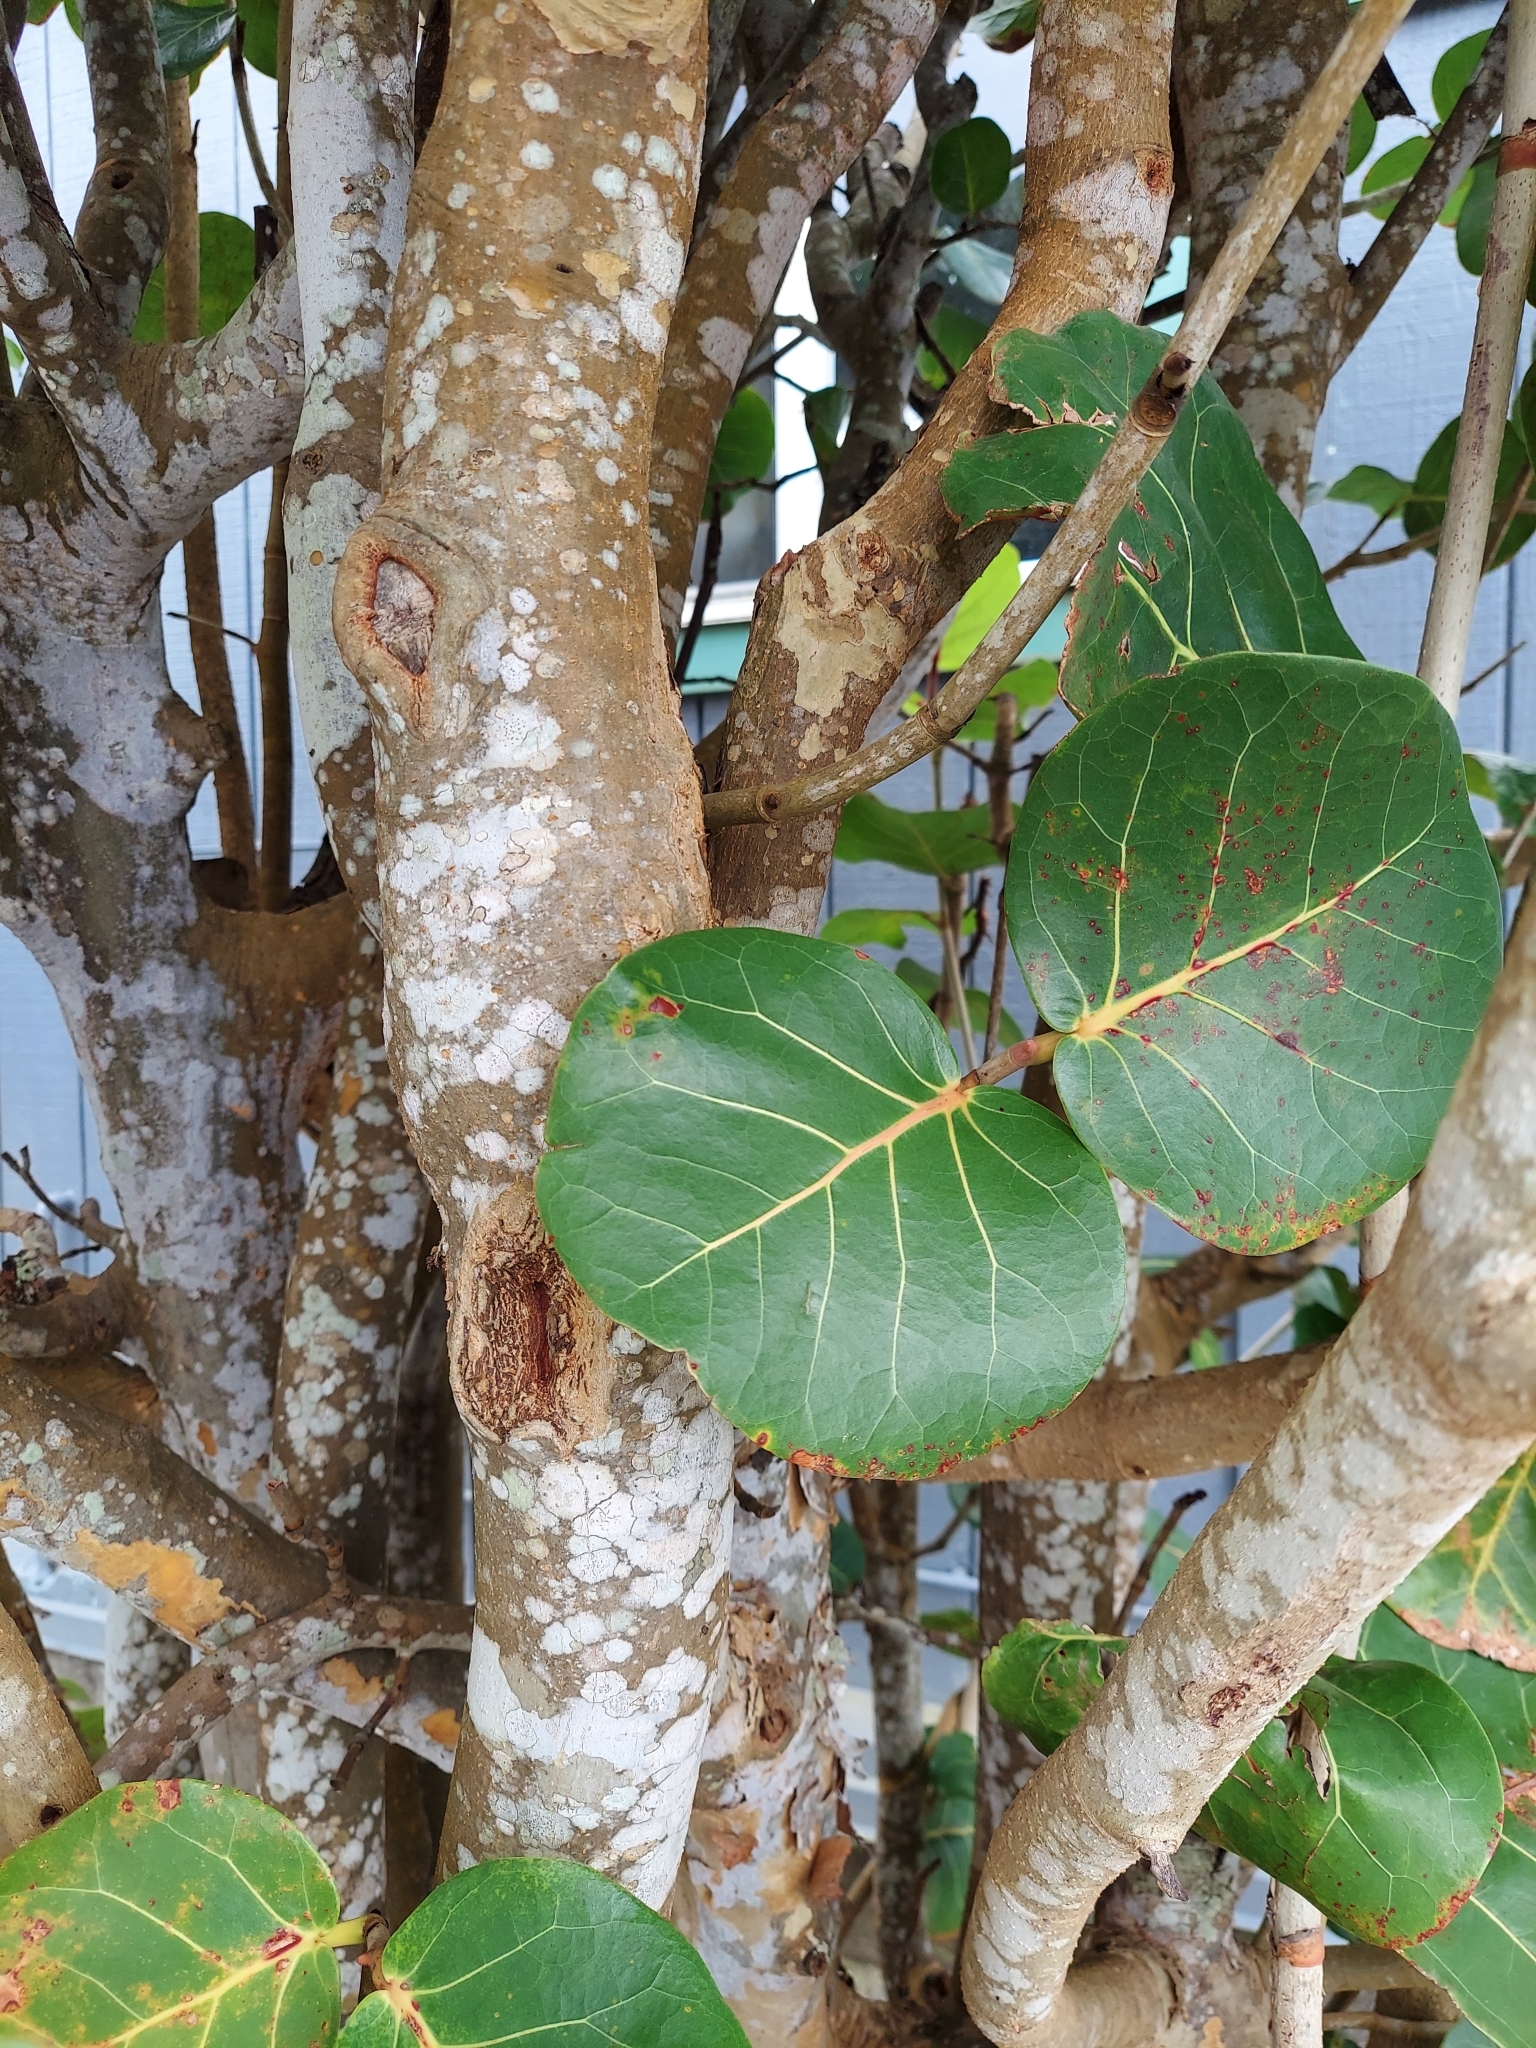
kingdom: Plantae
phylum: Tracheophyta
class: Magnoliopsida
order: Caryophyllales
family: Polygonaceae
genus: Coccoloba
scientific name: Coccoloba uvifera
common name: Seagrape
